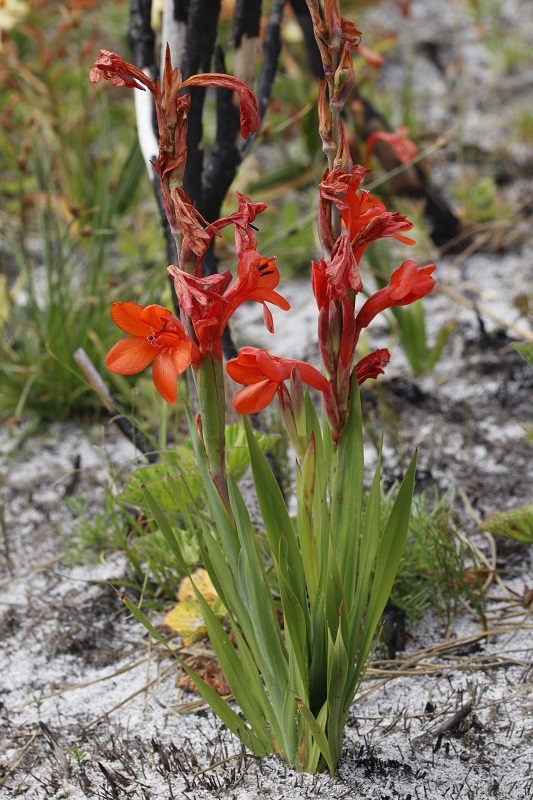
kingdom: Plantae
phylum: Tracheophyta
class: Liliopsida
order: Asparagales
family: Iridaceae
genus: Watsonia
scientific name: Watsonia stenosiphon
